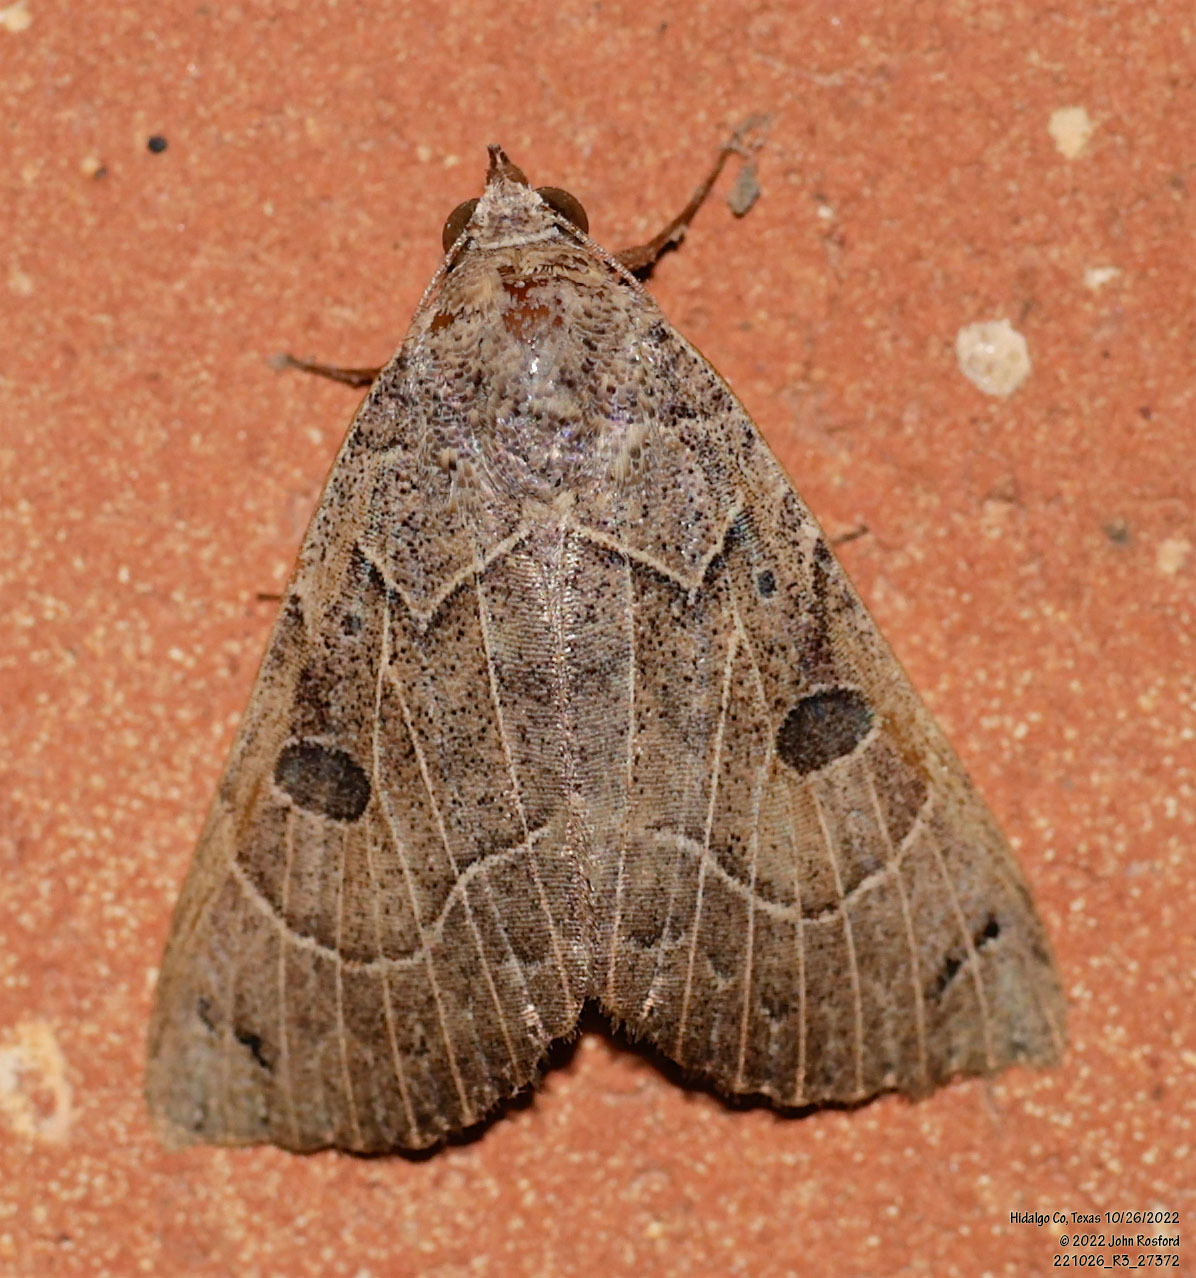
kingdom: Animalia
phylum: Arthropoda
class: Insecta
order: Lepidoptera
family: Erebidae
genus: Isogona
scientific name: Isogona scindens
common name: Owlet moth
